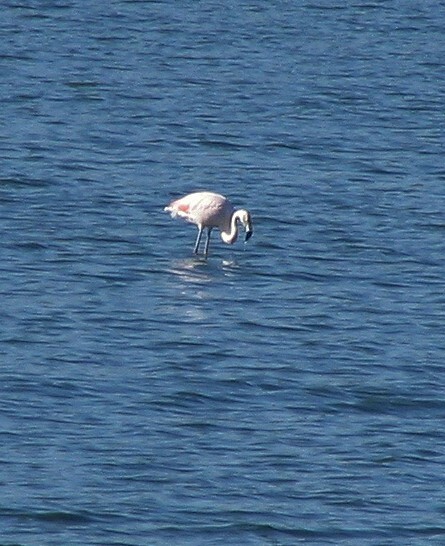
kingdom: Animalia
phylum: Chordata
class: Aves
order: Phoenicopteriformes
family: Phoenicopteridae
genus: Phoenicopterus
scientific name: Phoenicopterus chilensis
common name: Chilean flamingo
